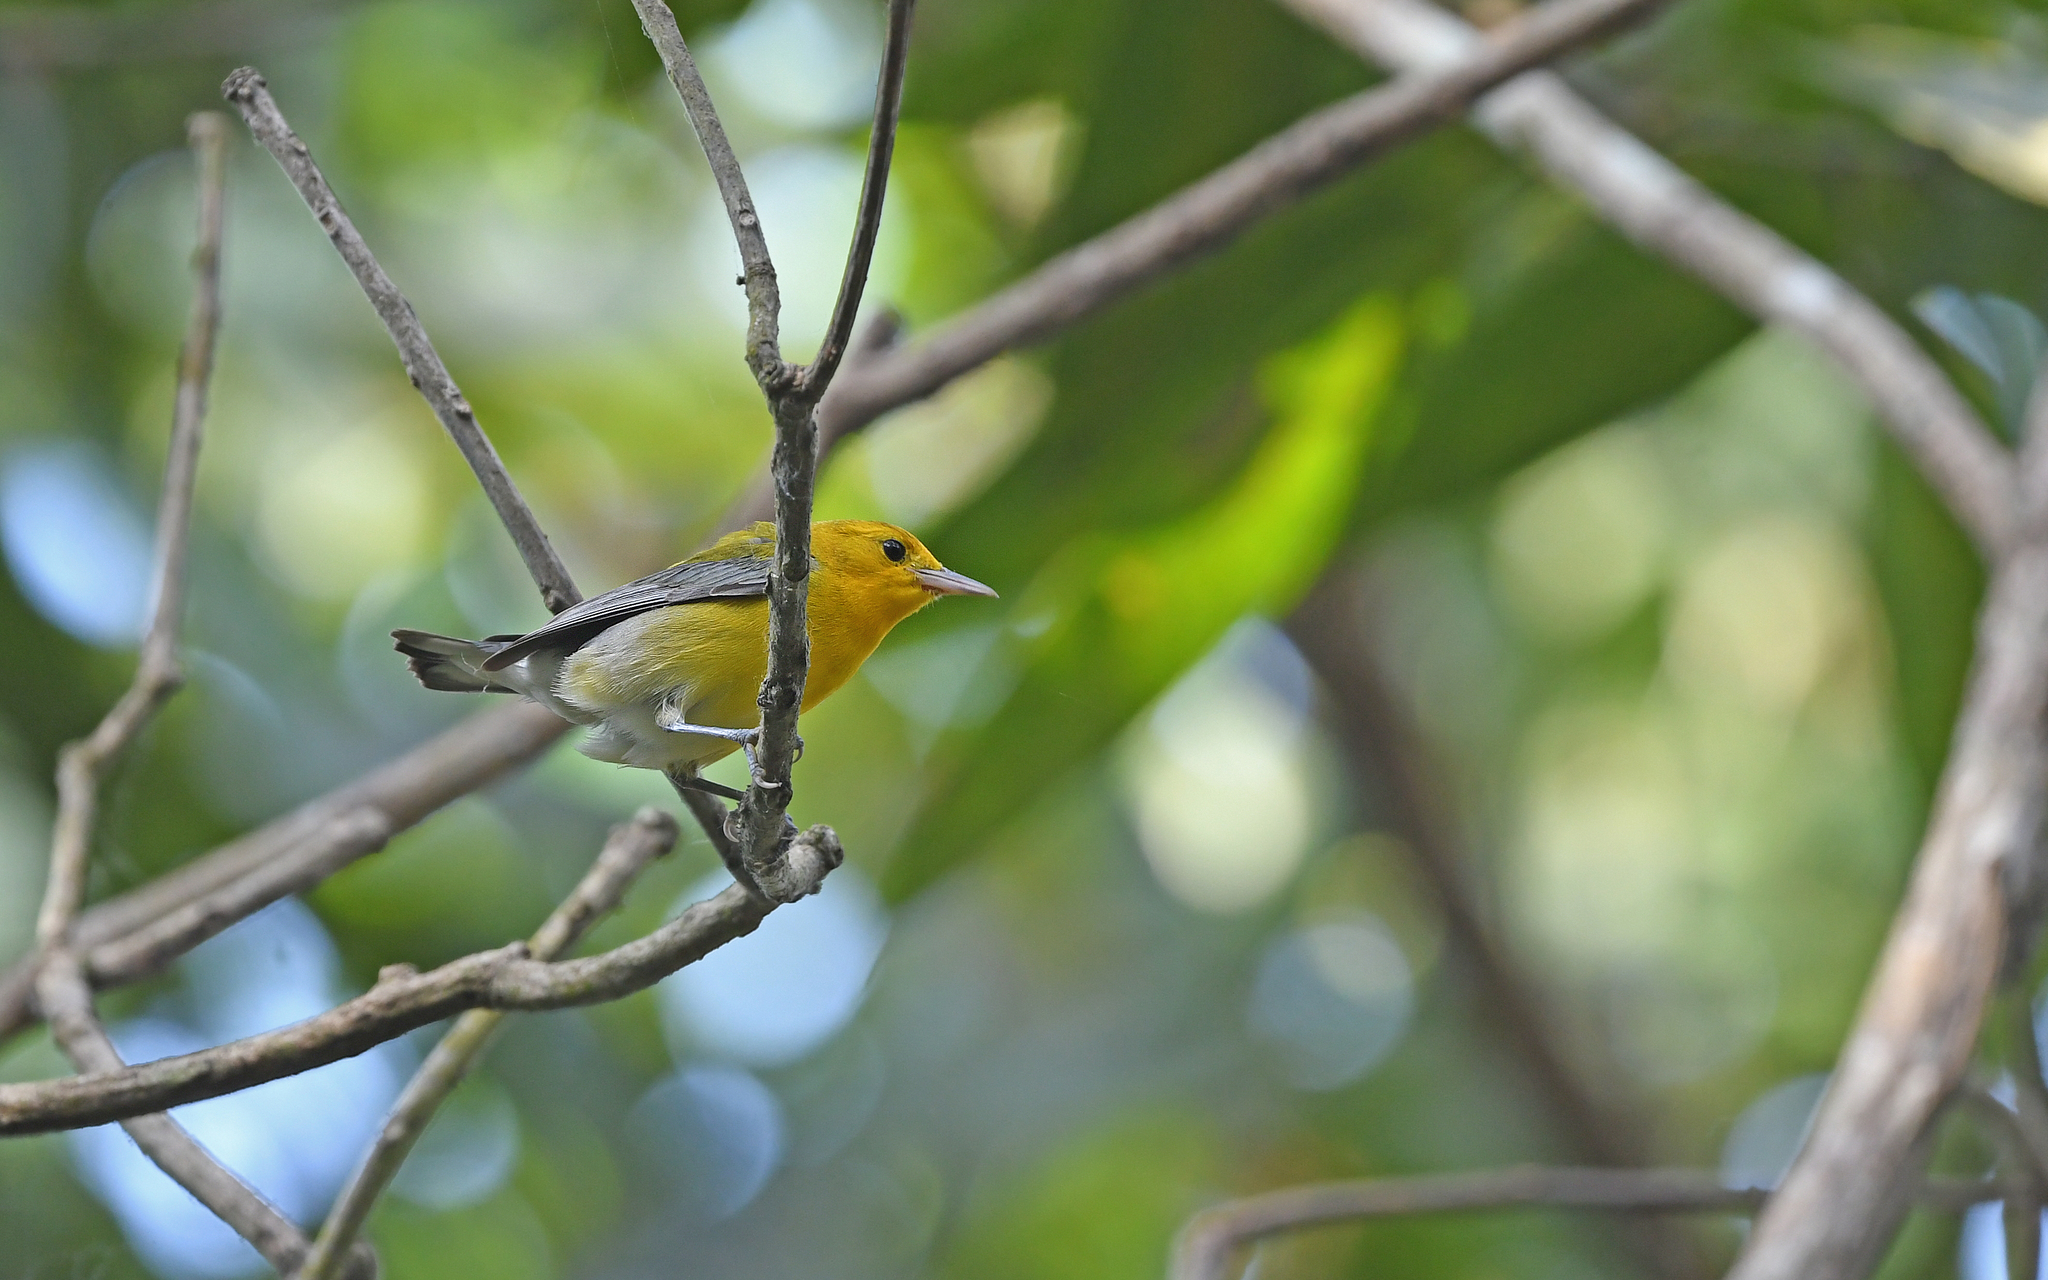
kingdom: Animalia
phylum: Chordata
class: Aves
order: Passeriformes
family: Parulidae
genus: Protonotaria
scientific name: Protonotaria citrea
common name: Prothonotary warbler
